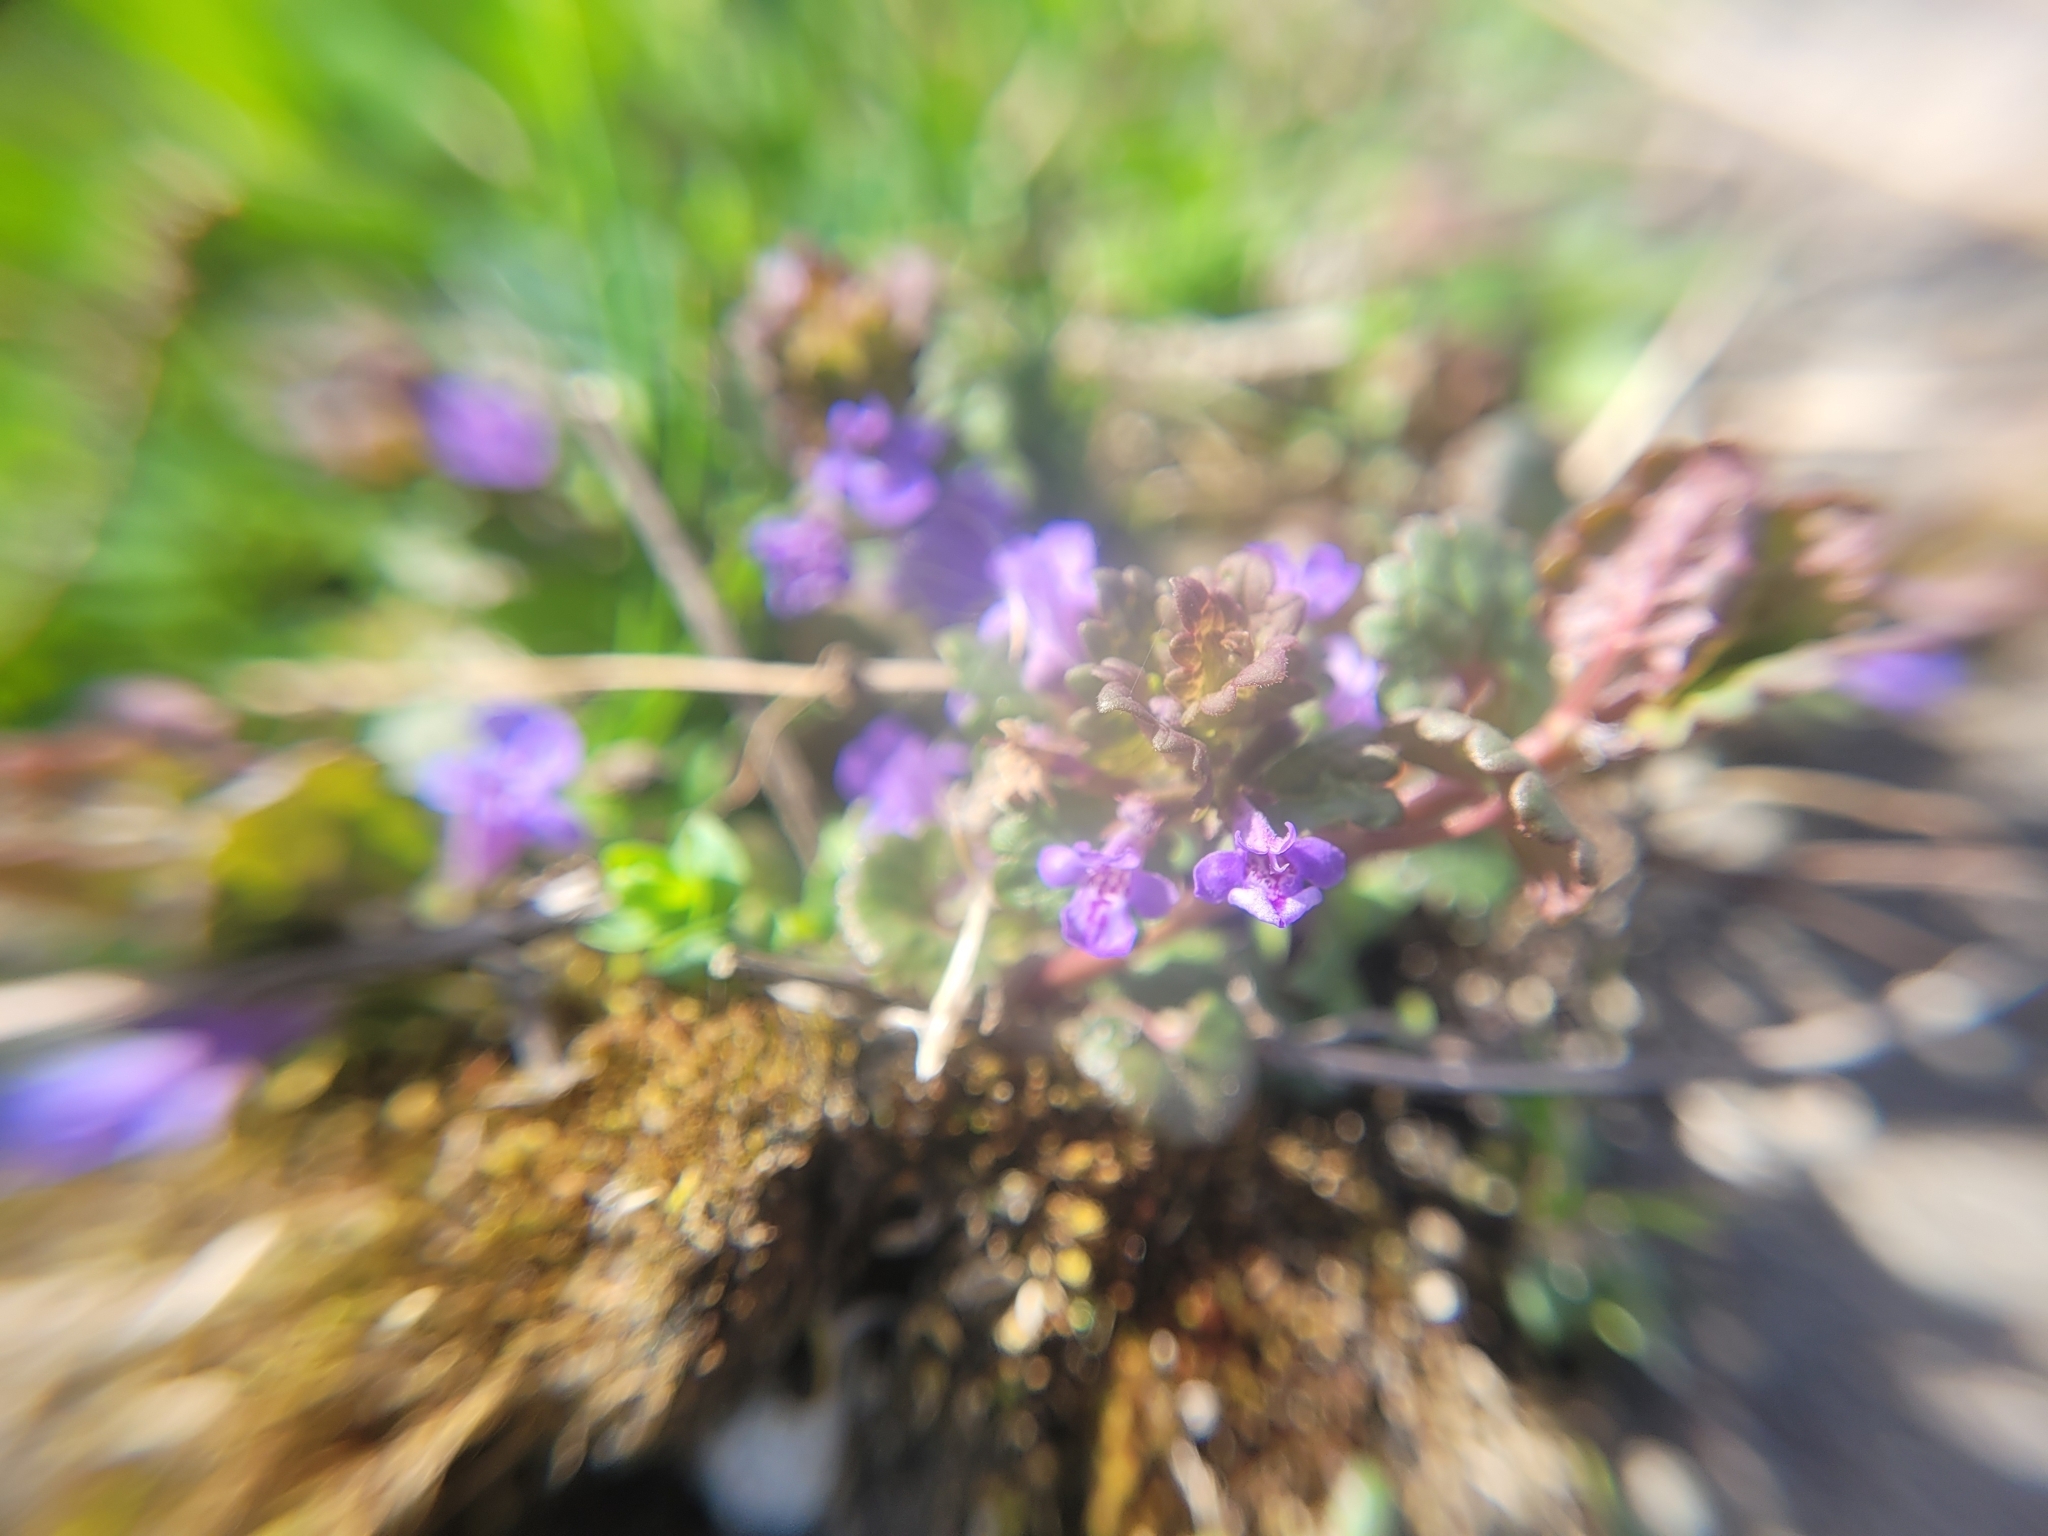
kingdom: Plantae
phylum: Tracheophyta
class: Magnoliopsida
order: Lamiales
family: Lamiaceae
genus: Glechoma
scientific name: Glechoma hederacea
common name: Ground ivy
